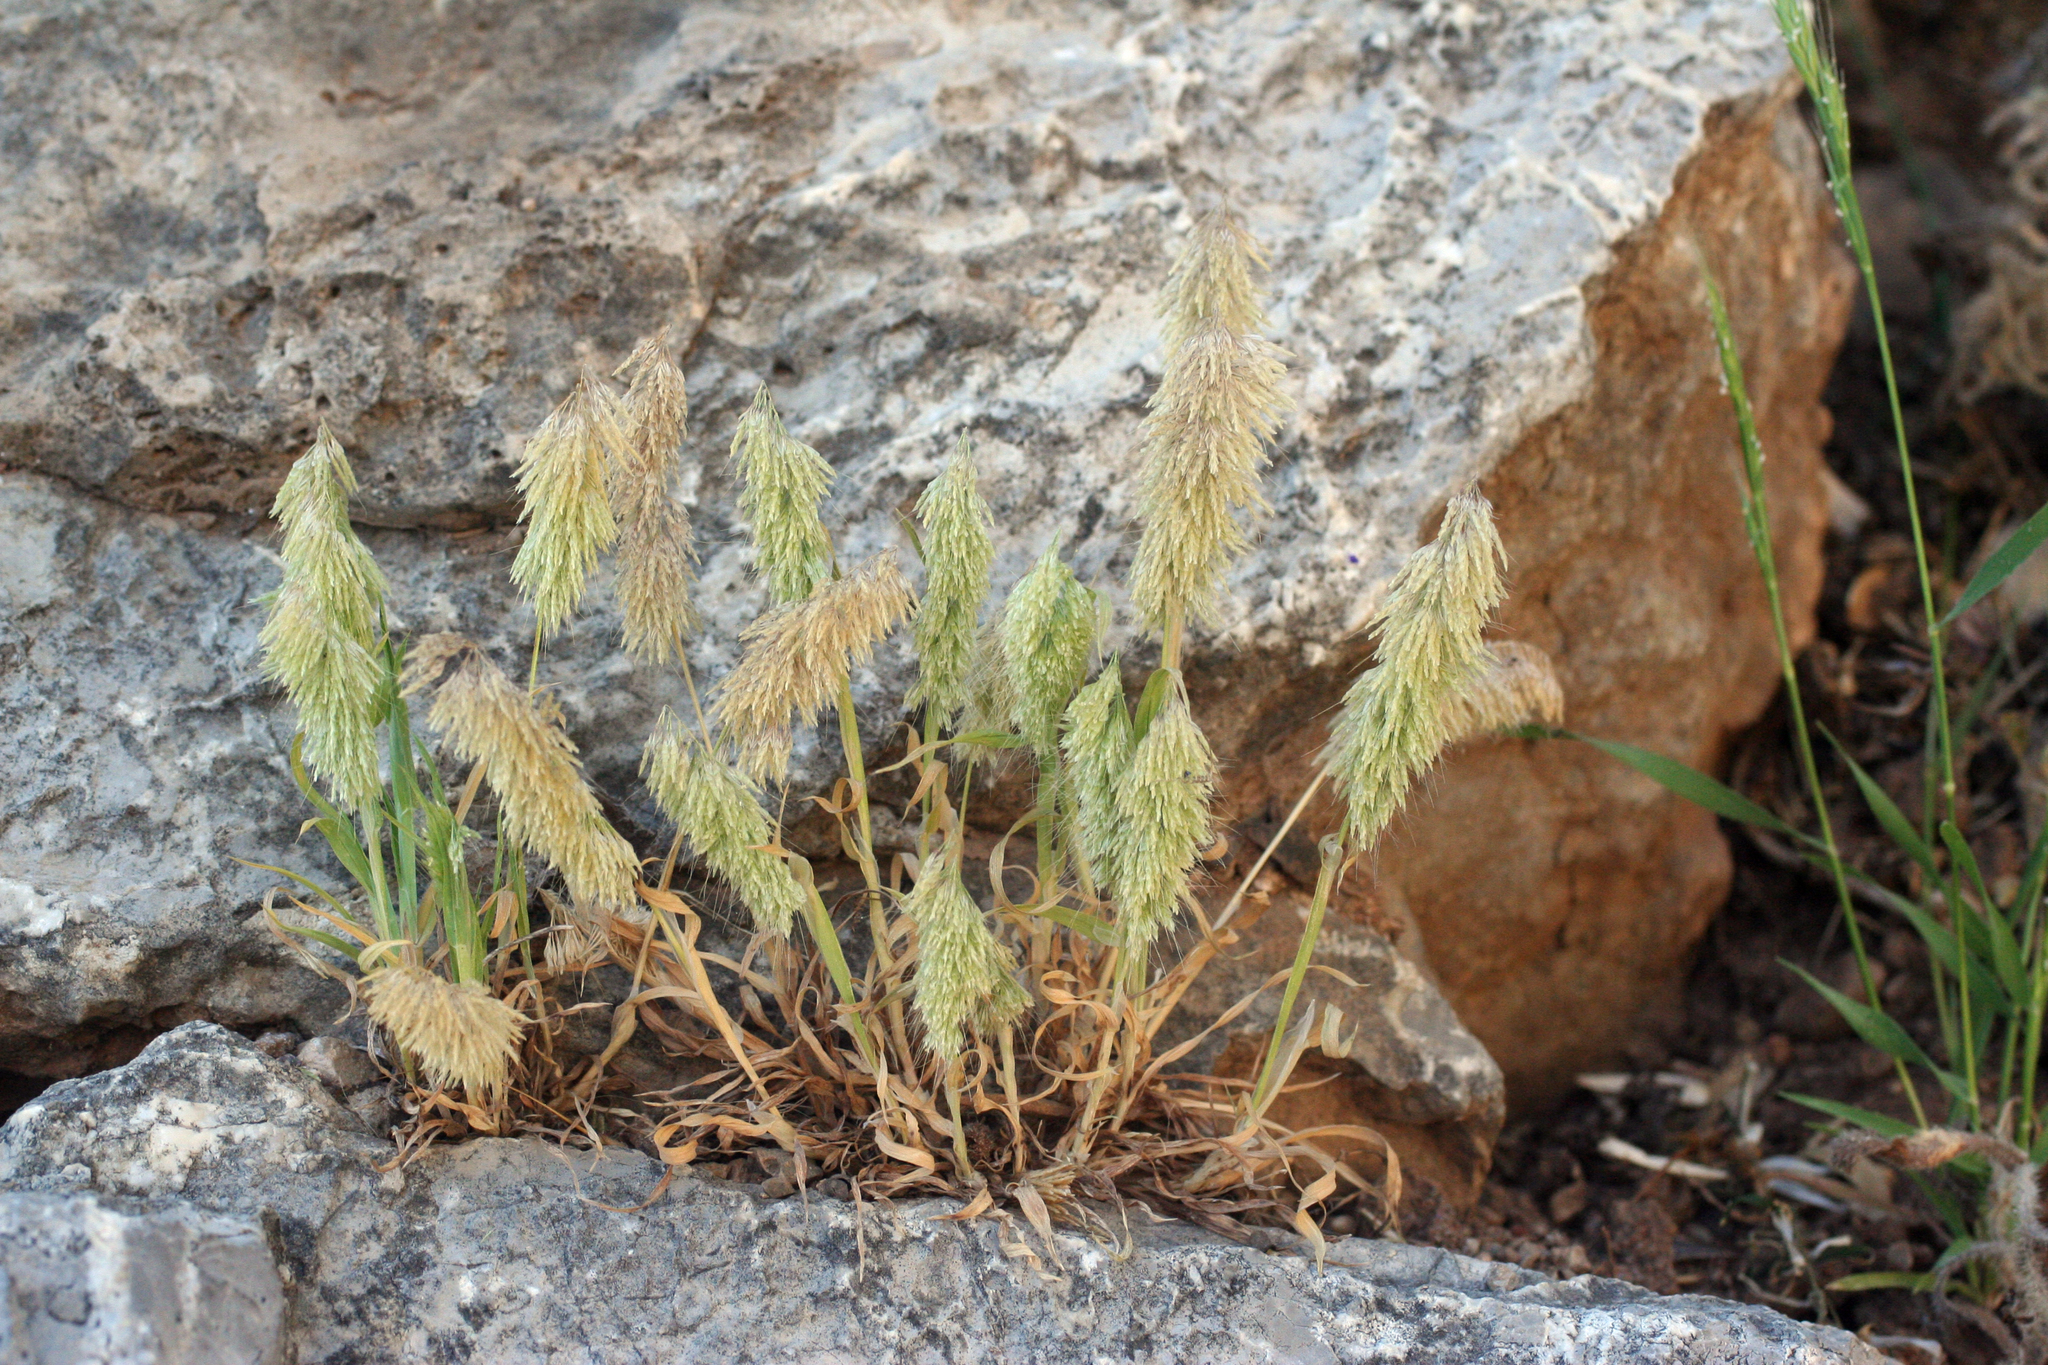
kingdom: Plantae
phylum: Tracheophyta
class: Liliopsida
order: Poales
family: Poaceae
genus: Lamarckia
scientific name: Lamarckia aurea
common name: Golden dog's-tail
